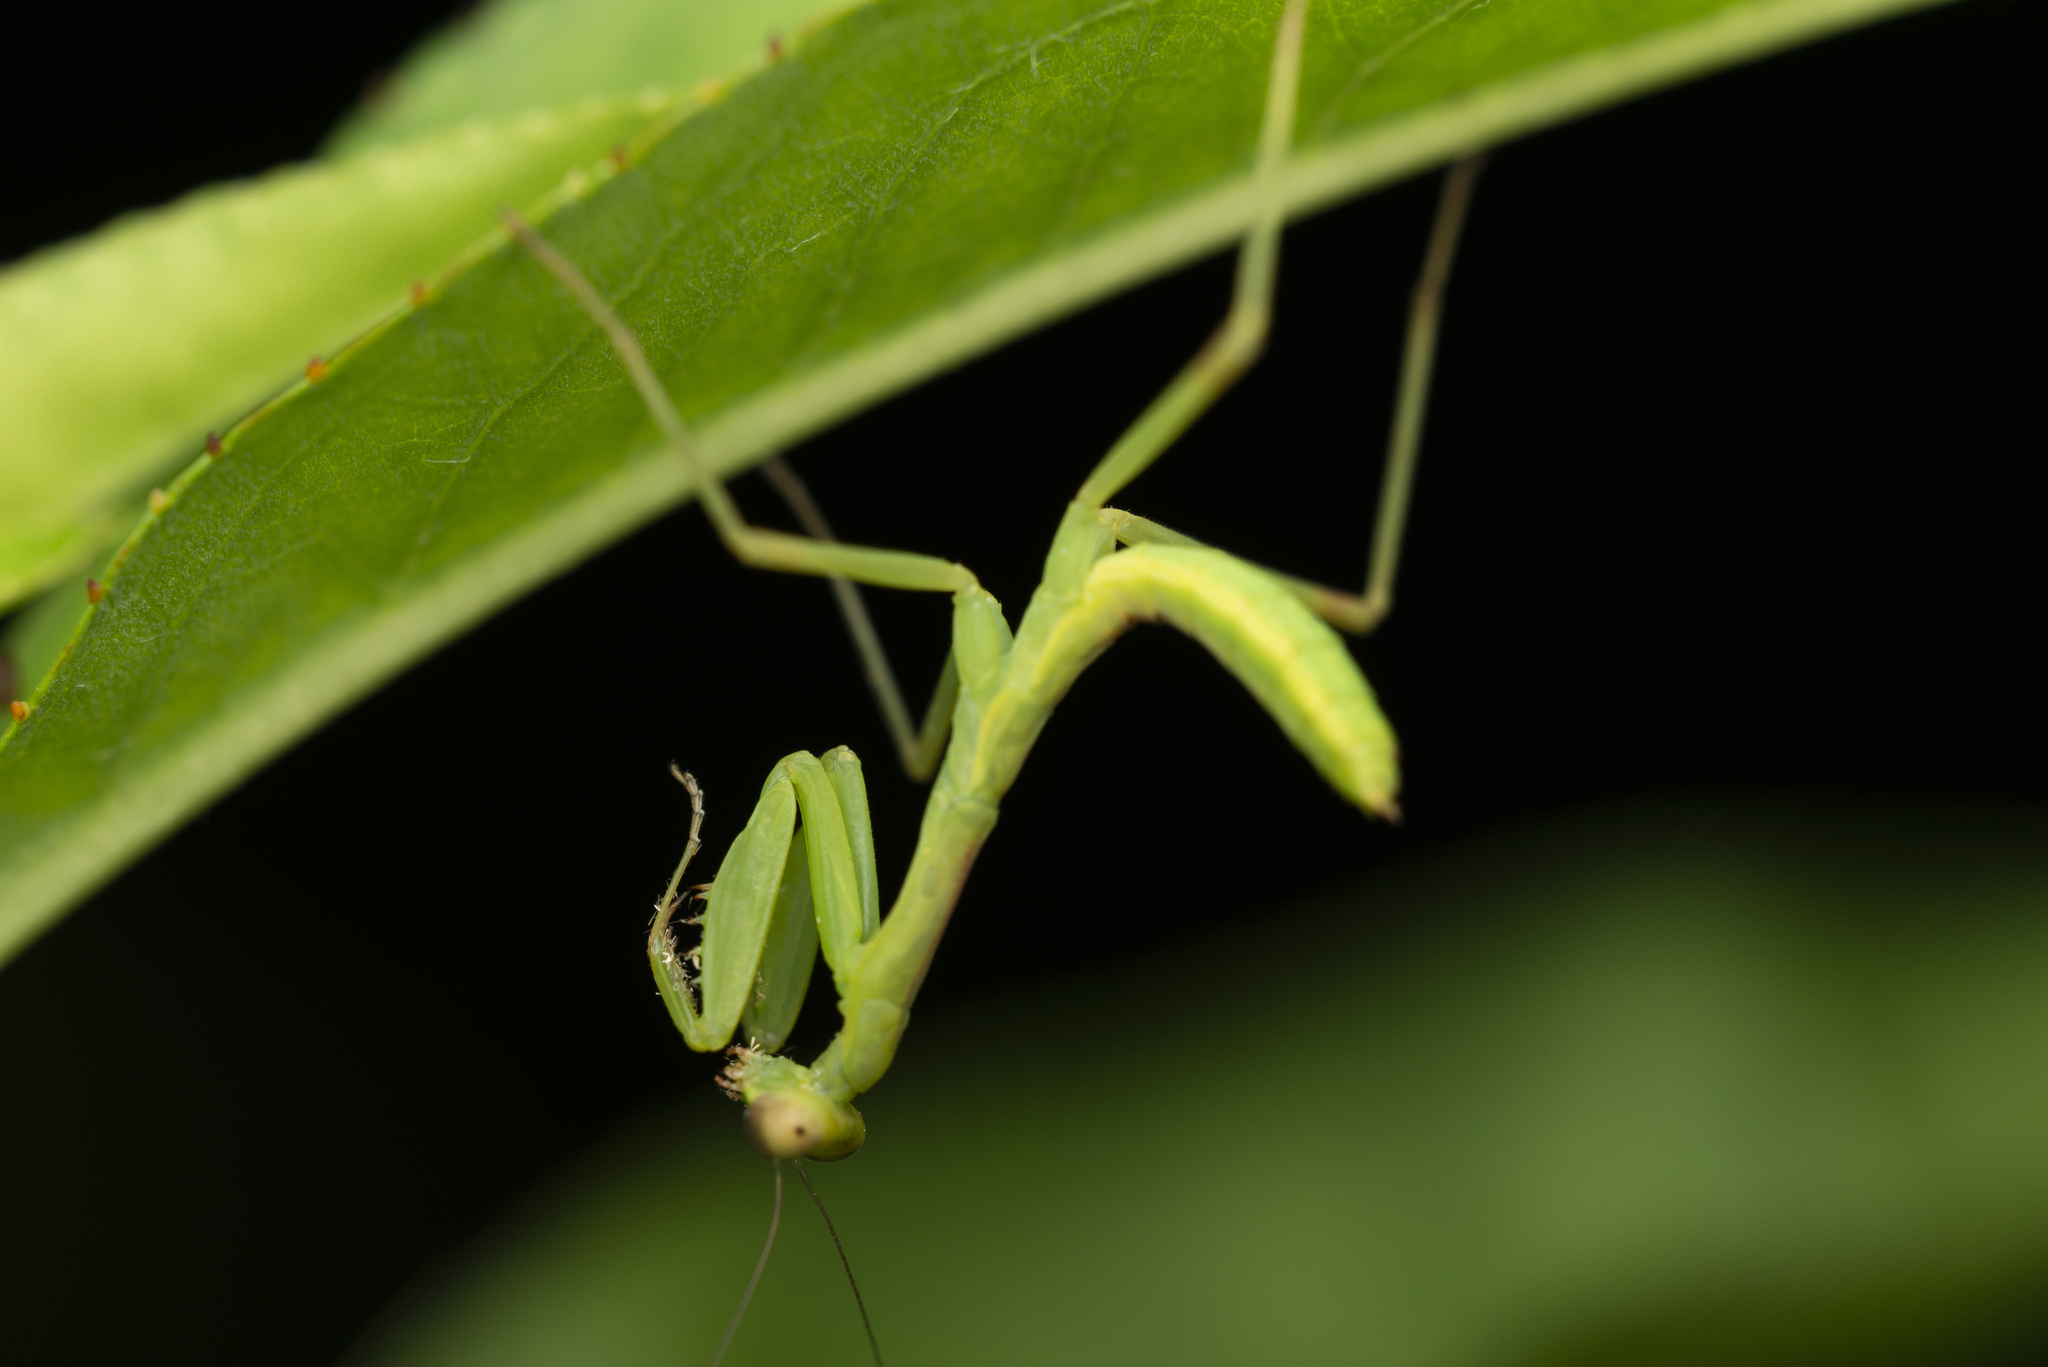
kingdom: Animalia
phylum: Arthropoda
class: Insecta
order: Mantodea
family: Mantidae
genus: Hierodula
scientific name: Hierodula patellifera
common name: Asian mantis
